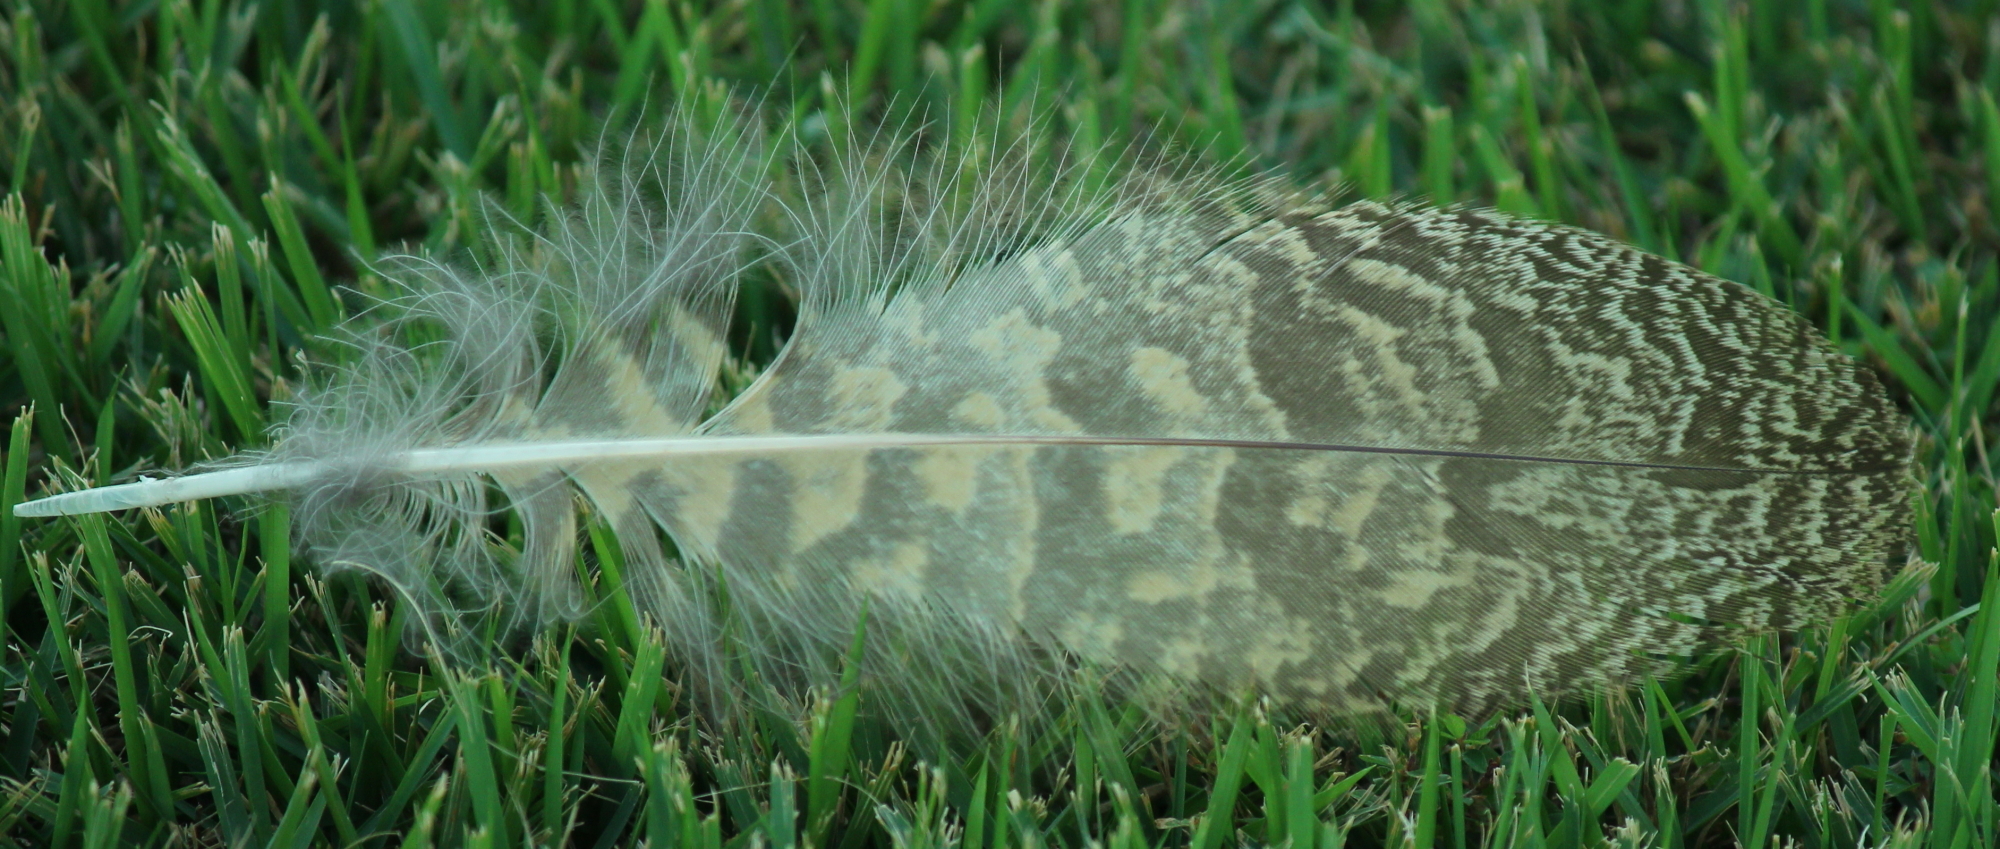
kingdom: Animalia
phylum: Chordata
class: Aves
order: Strigiformes
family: Strigidae
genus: Bubo
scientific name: Bubo virginianus
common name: Great horned owl
